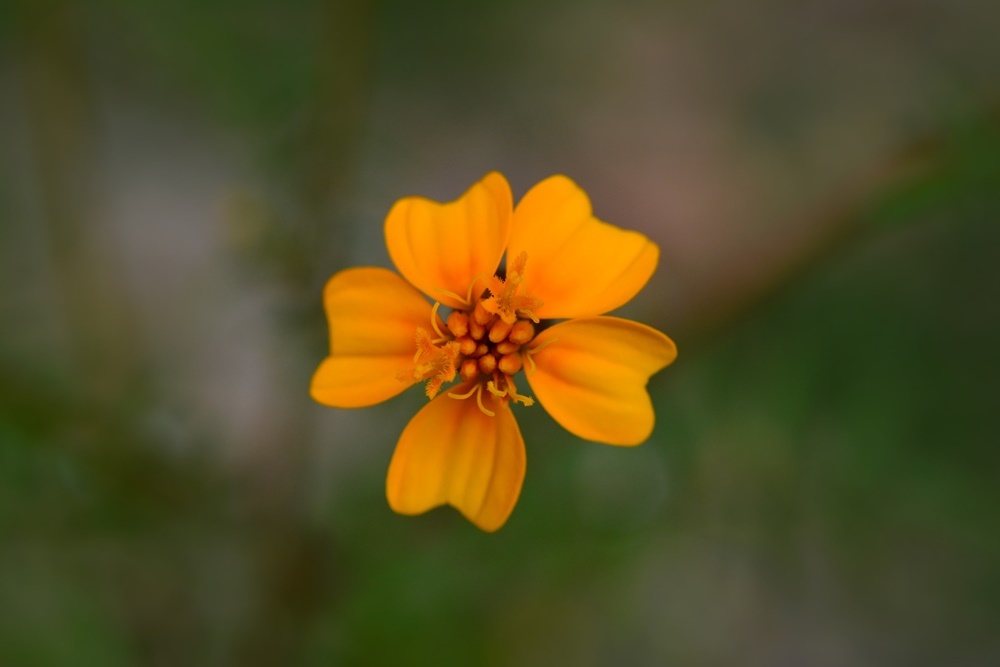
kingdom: Plantae
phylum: Tracheophyta
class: Magnoliopsida
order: Asterales
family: Asteraceae
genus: Tagetes
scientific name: Tagetes tenuifolia
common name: Signet marigold
